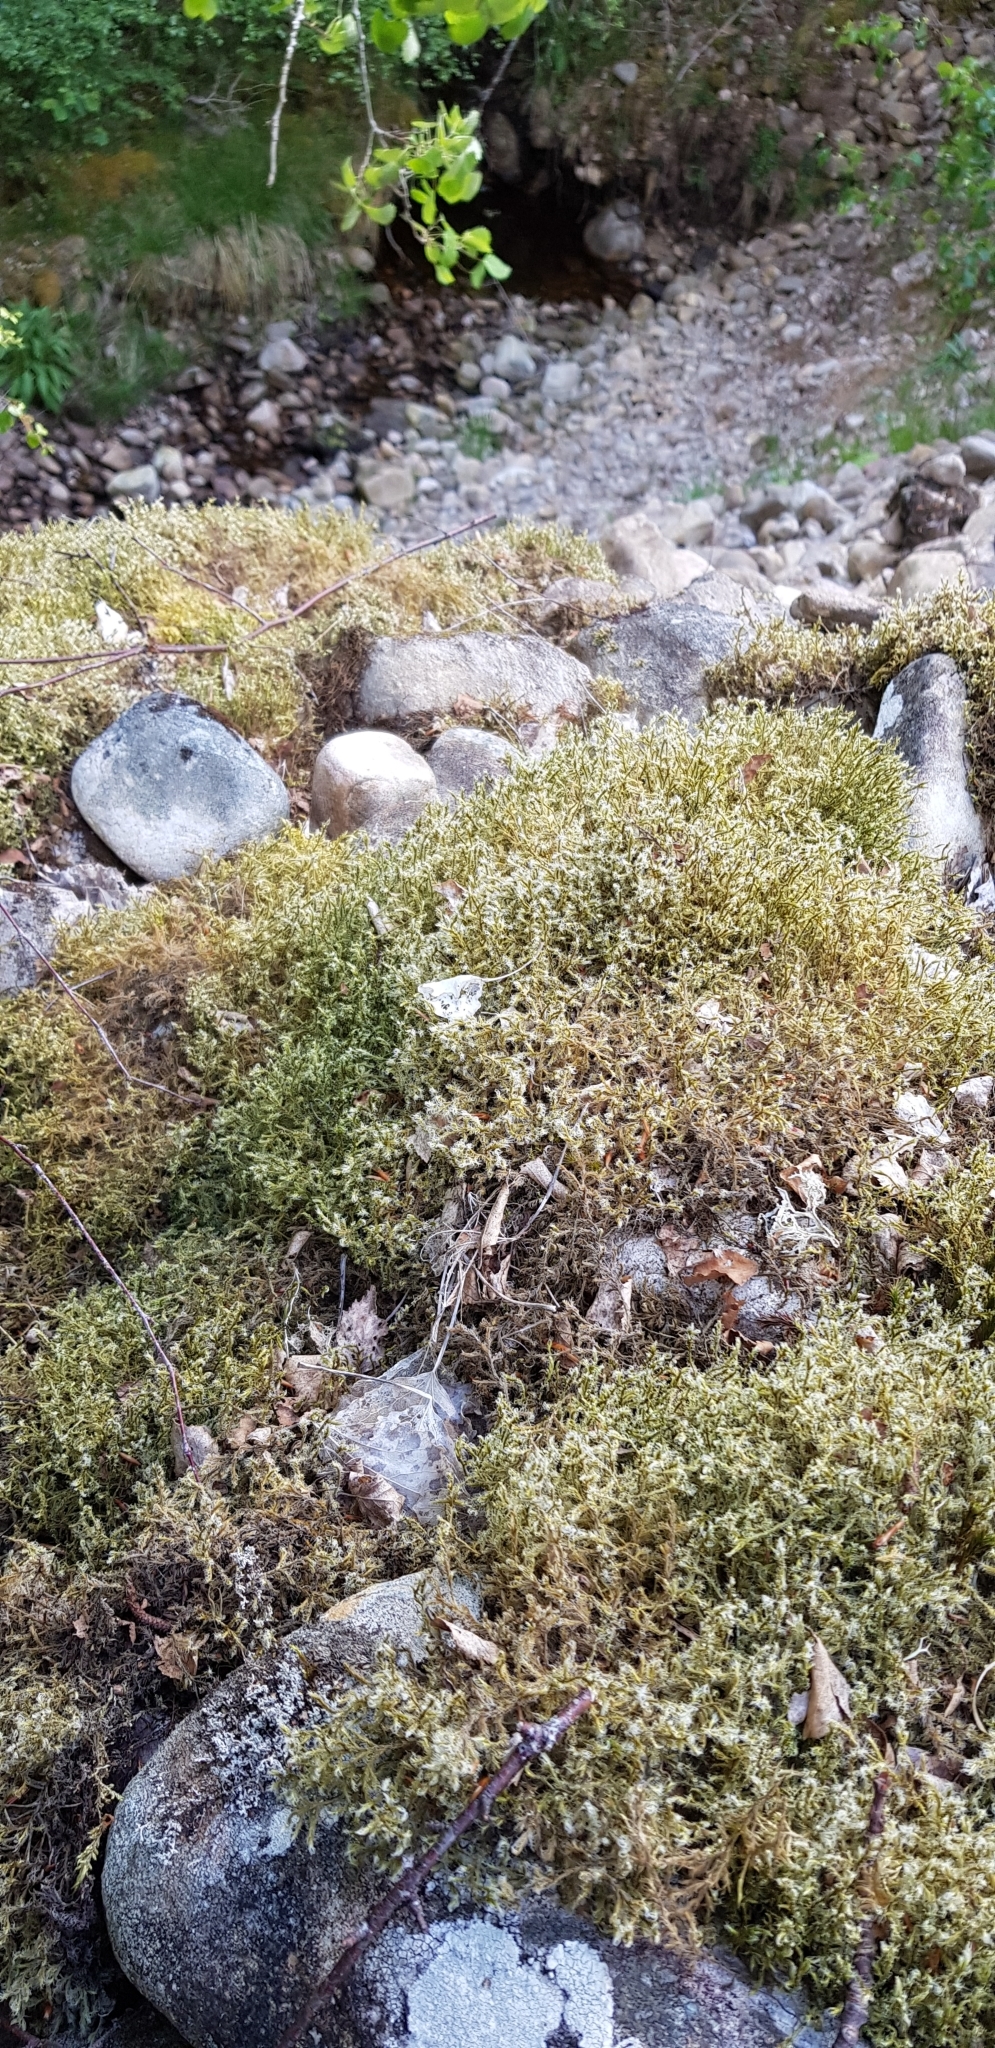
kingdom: Plantae
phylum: Bryophyta
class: Bryopsida
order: Grimmiales
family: Grimmiaceae
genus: Racomitrium
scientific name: Racomitrium lanuginosum
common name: Hoary rock moss
